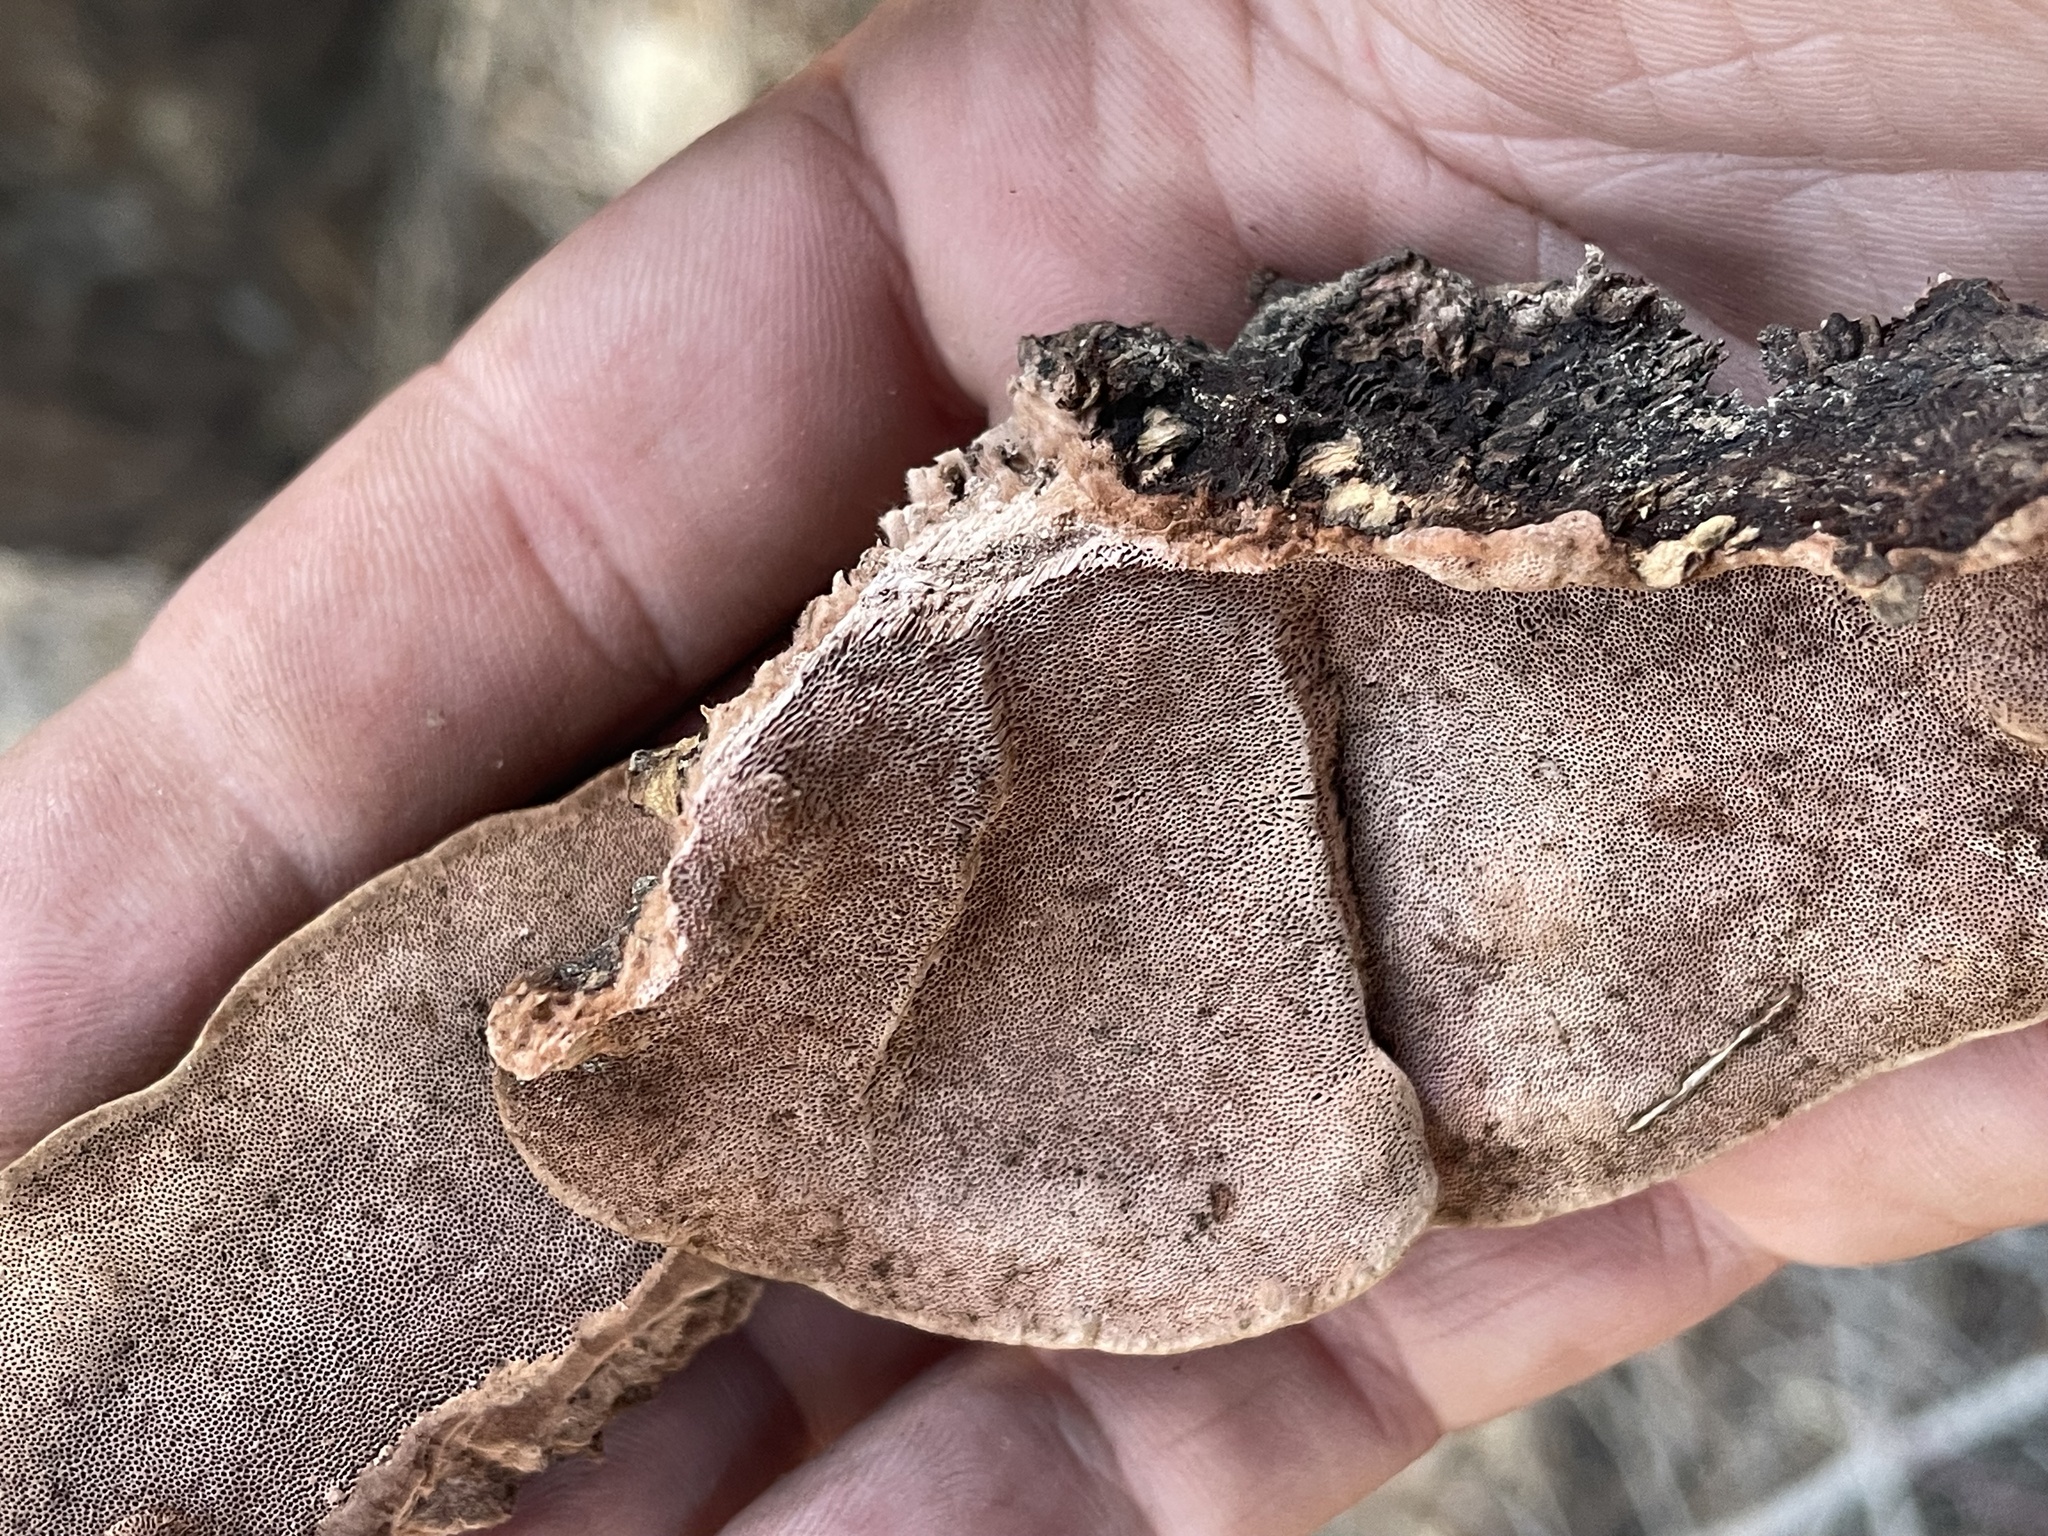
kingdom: Fungi
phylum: Basidiomycota
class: Agaricomycetes
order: Polyporales
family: Fomitopsidaceae
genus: Rhodofomes
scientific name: Rhodofomes cajanderi
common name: Rosy conk
